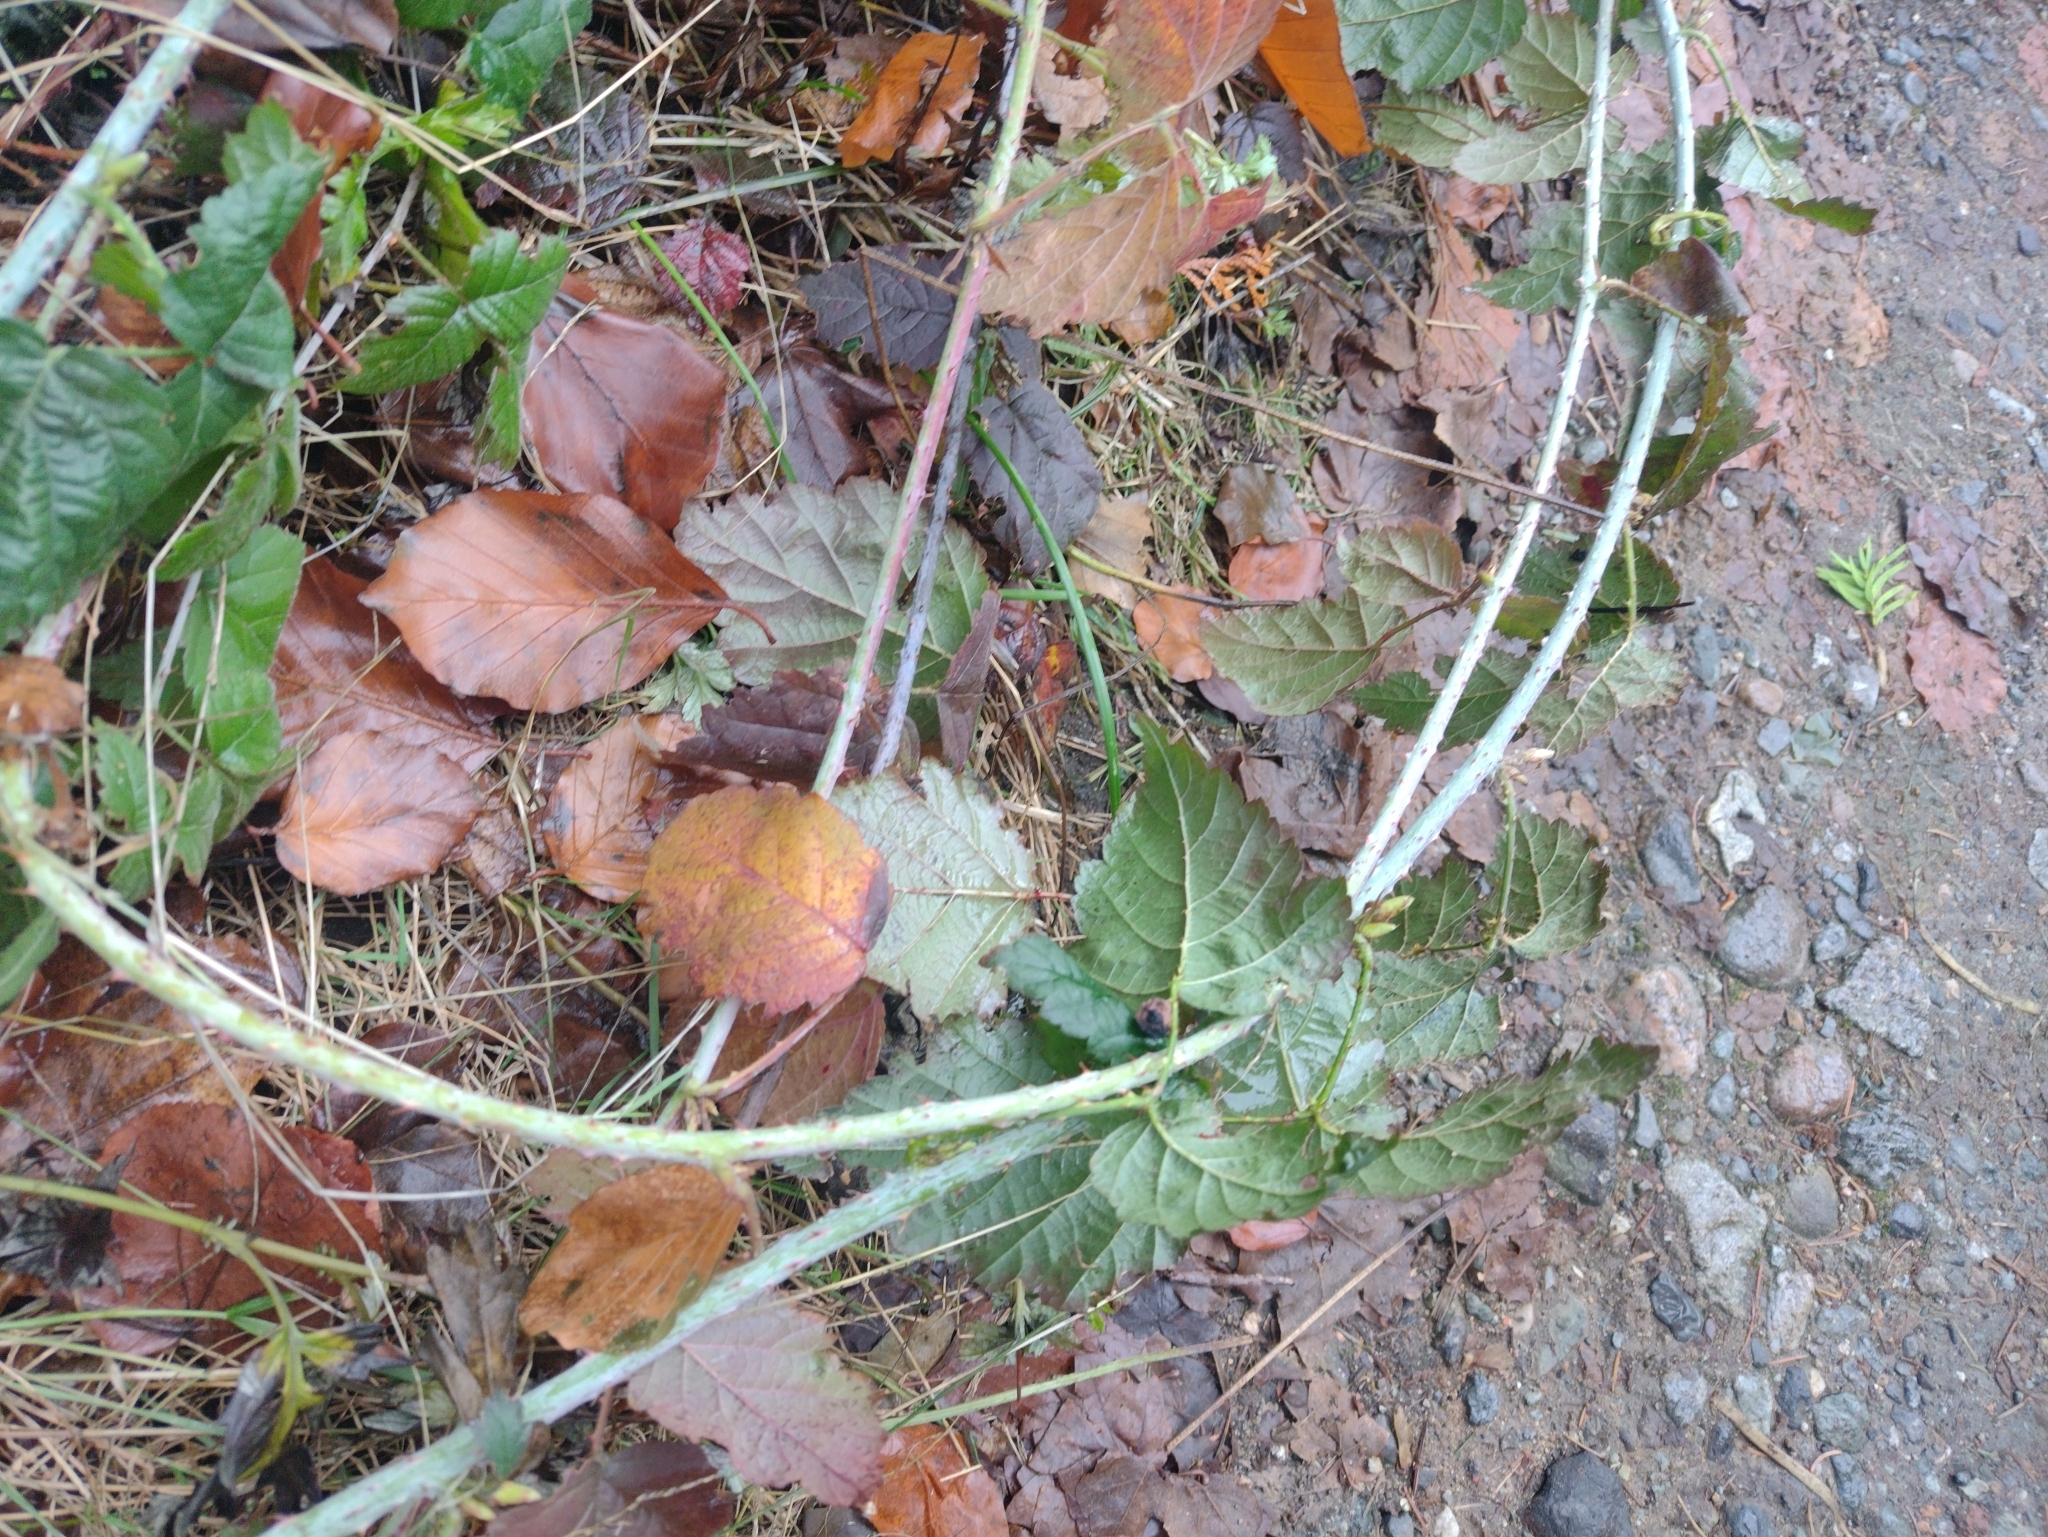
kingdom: Plantae
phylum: Tracheophyta
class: Magnoliopsida
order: Rosales
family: Rosaceae
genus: Rubus
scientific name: Rubus ursinus
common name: Pacific blackberry
